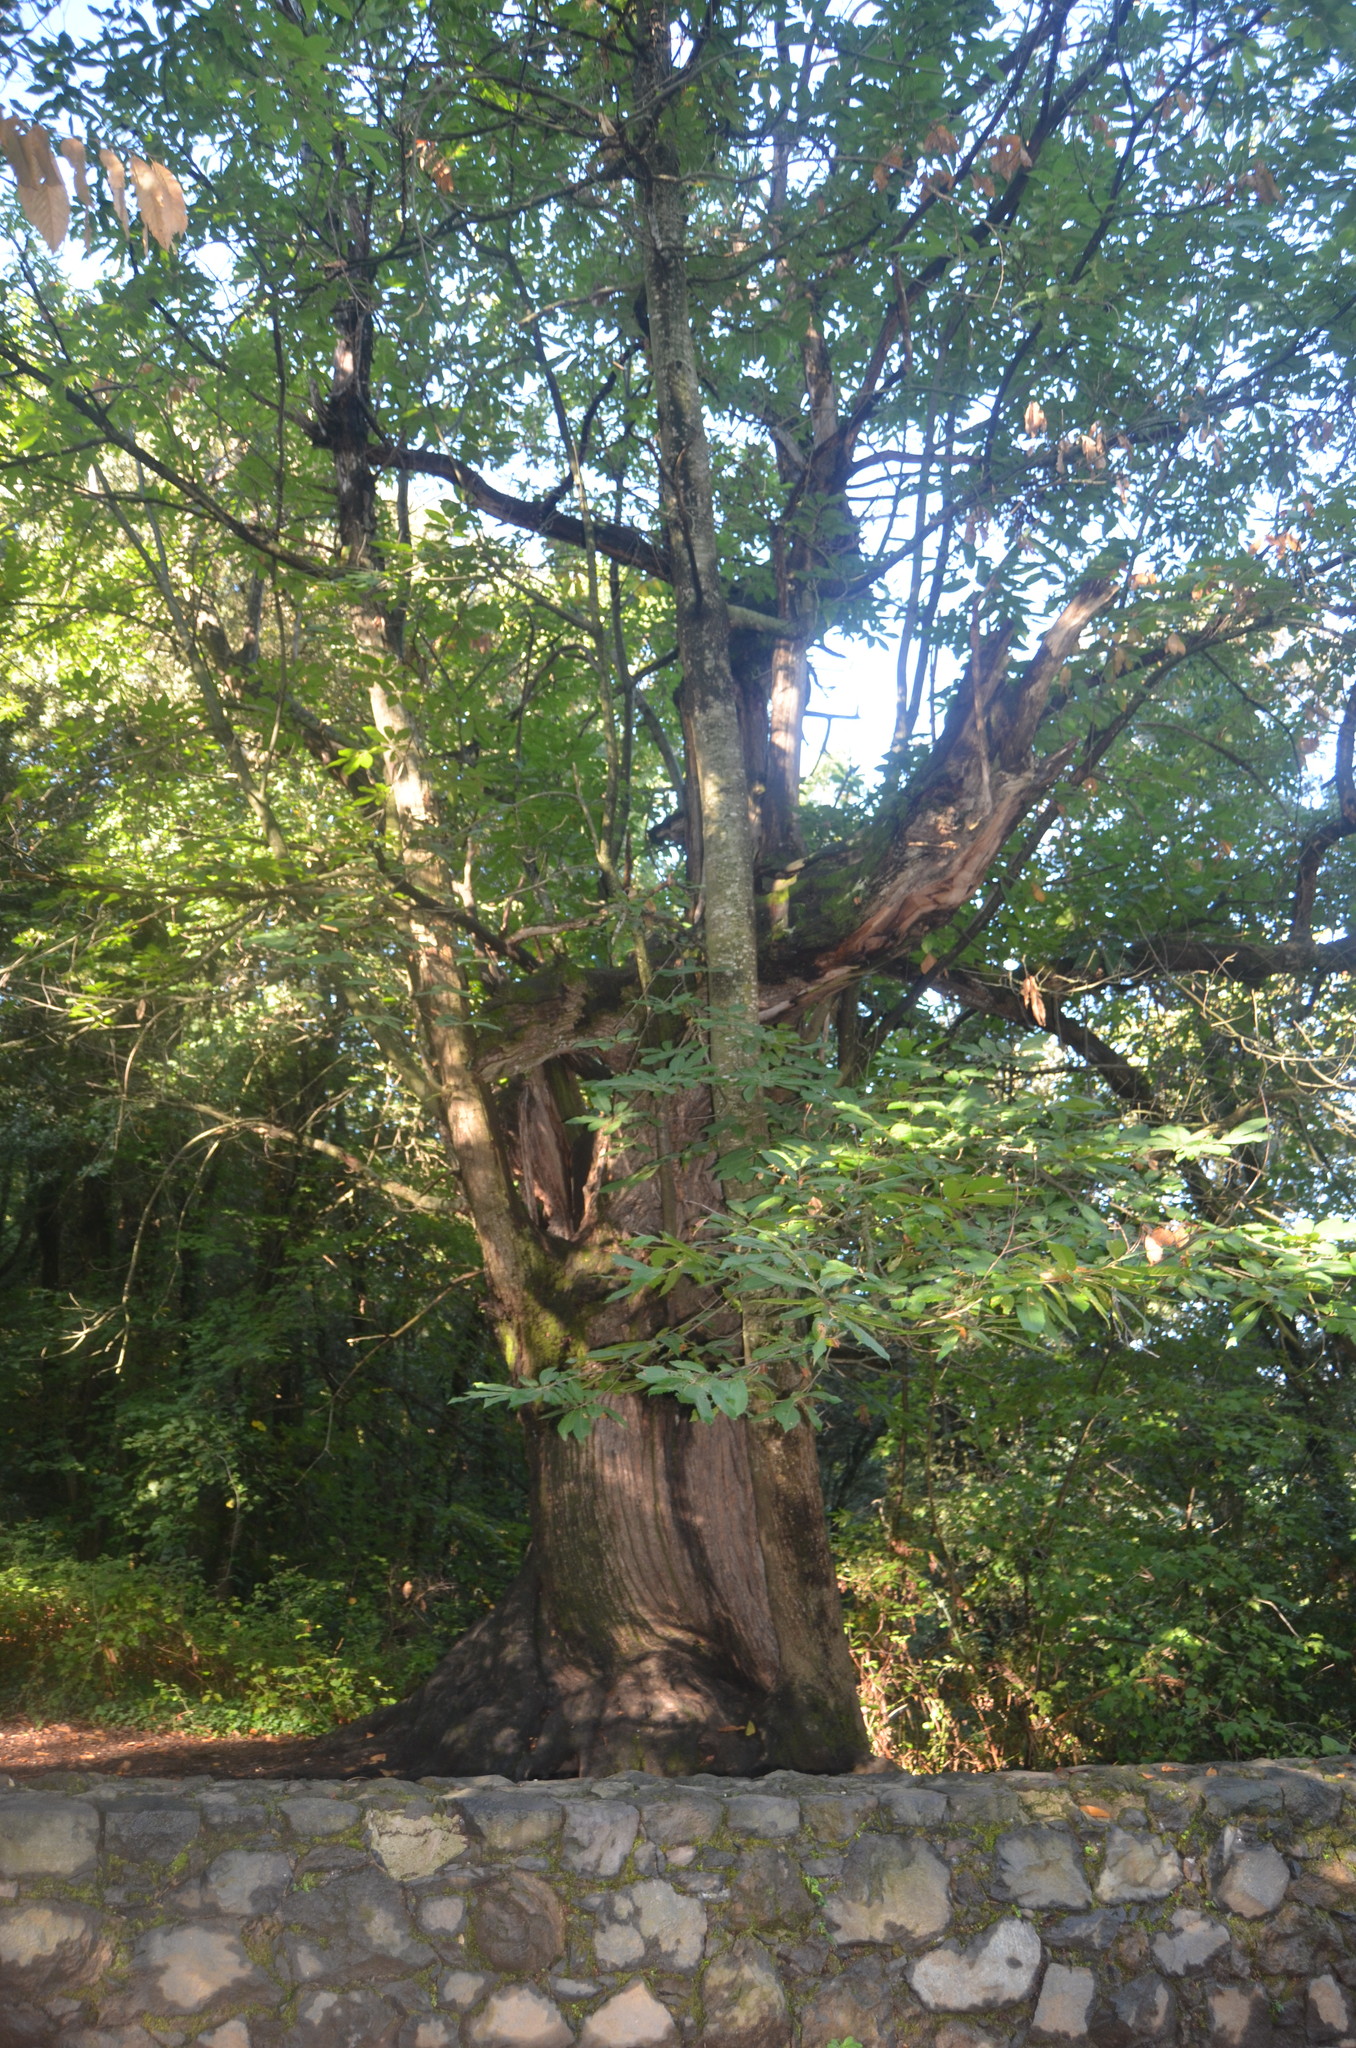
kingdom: Plantae
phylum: Tracheophyta
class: Magnoliopsida
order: Fagales
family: Fagaceae
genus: Castanea
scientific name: Castanea sativa
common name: Sweet chestnut
